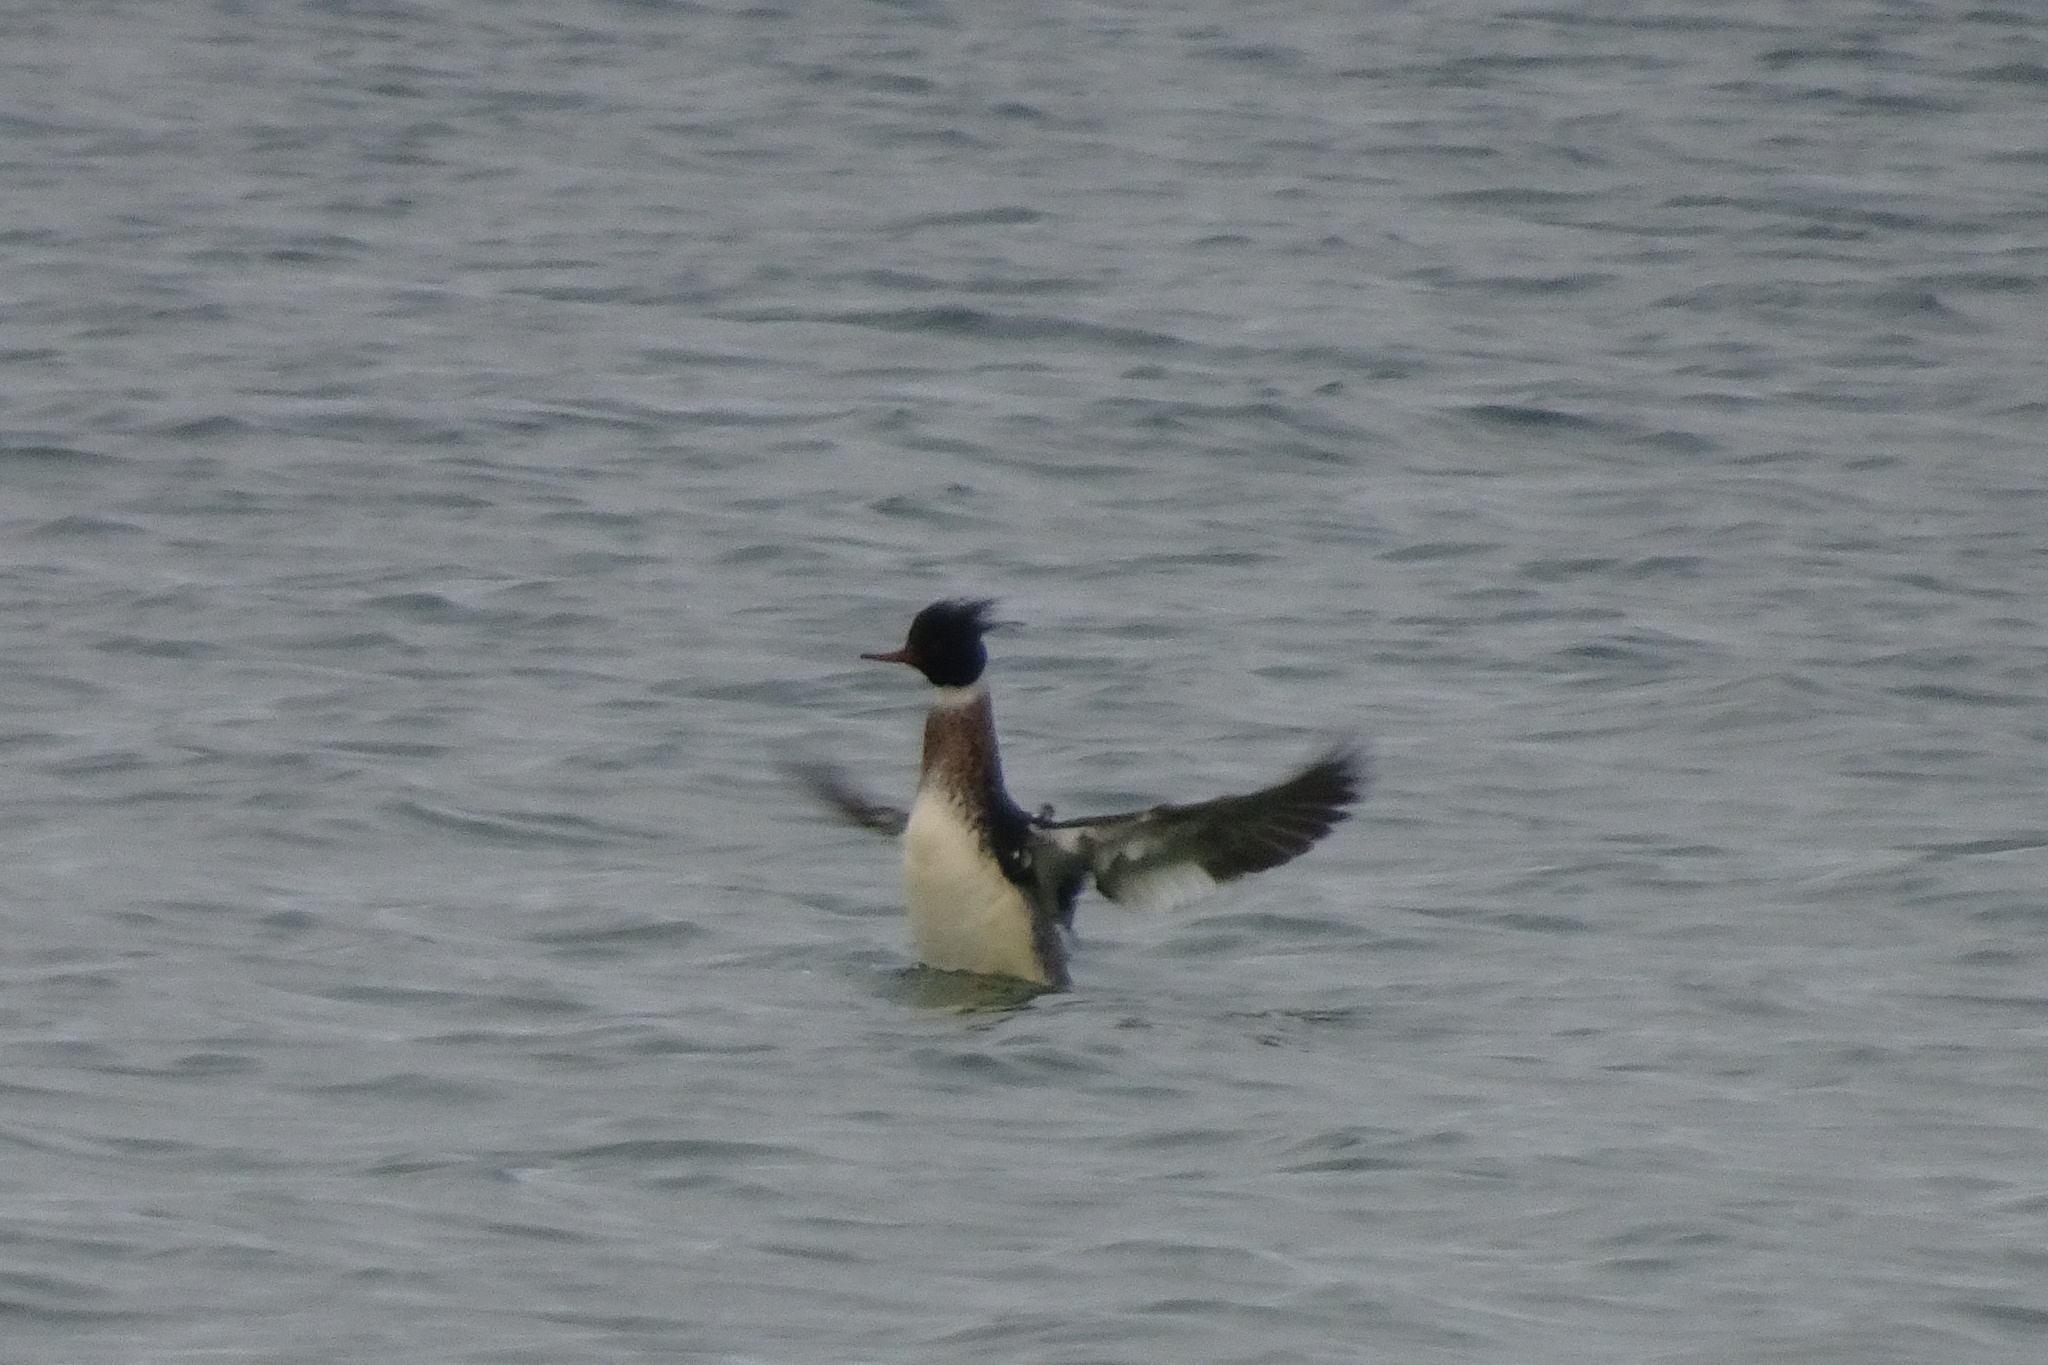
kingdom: Animalia
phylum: Chordata
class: Aves
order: Anseriformes
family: Anatidae
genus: Mergus
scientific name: Mergus serrator
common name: Red-breasted merganser
